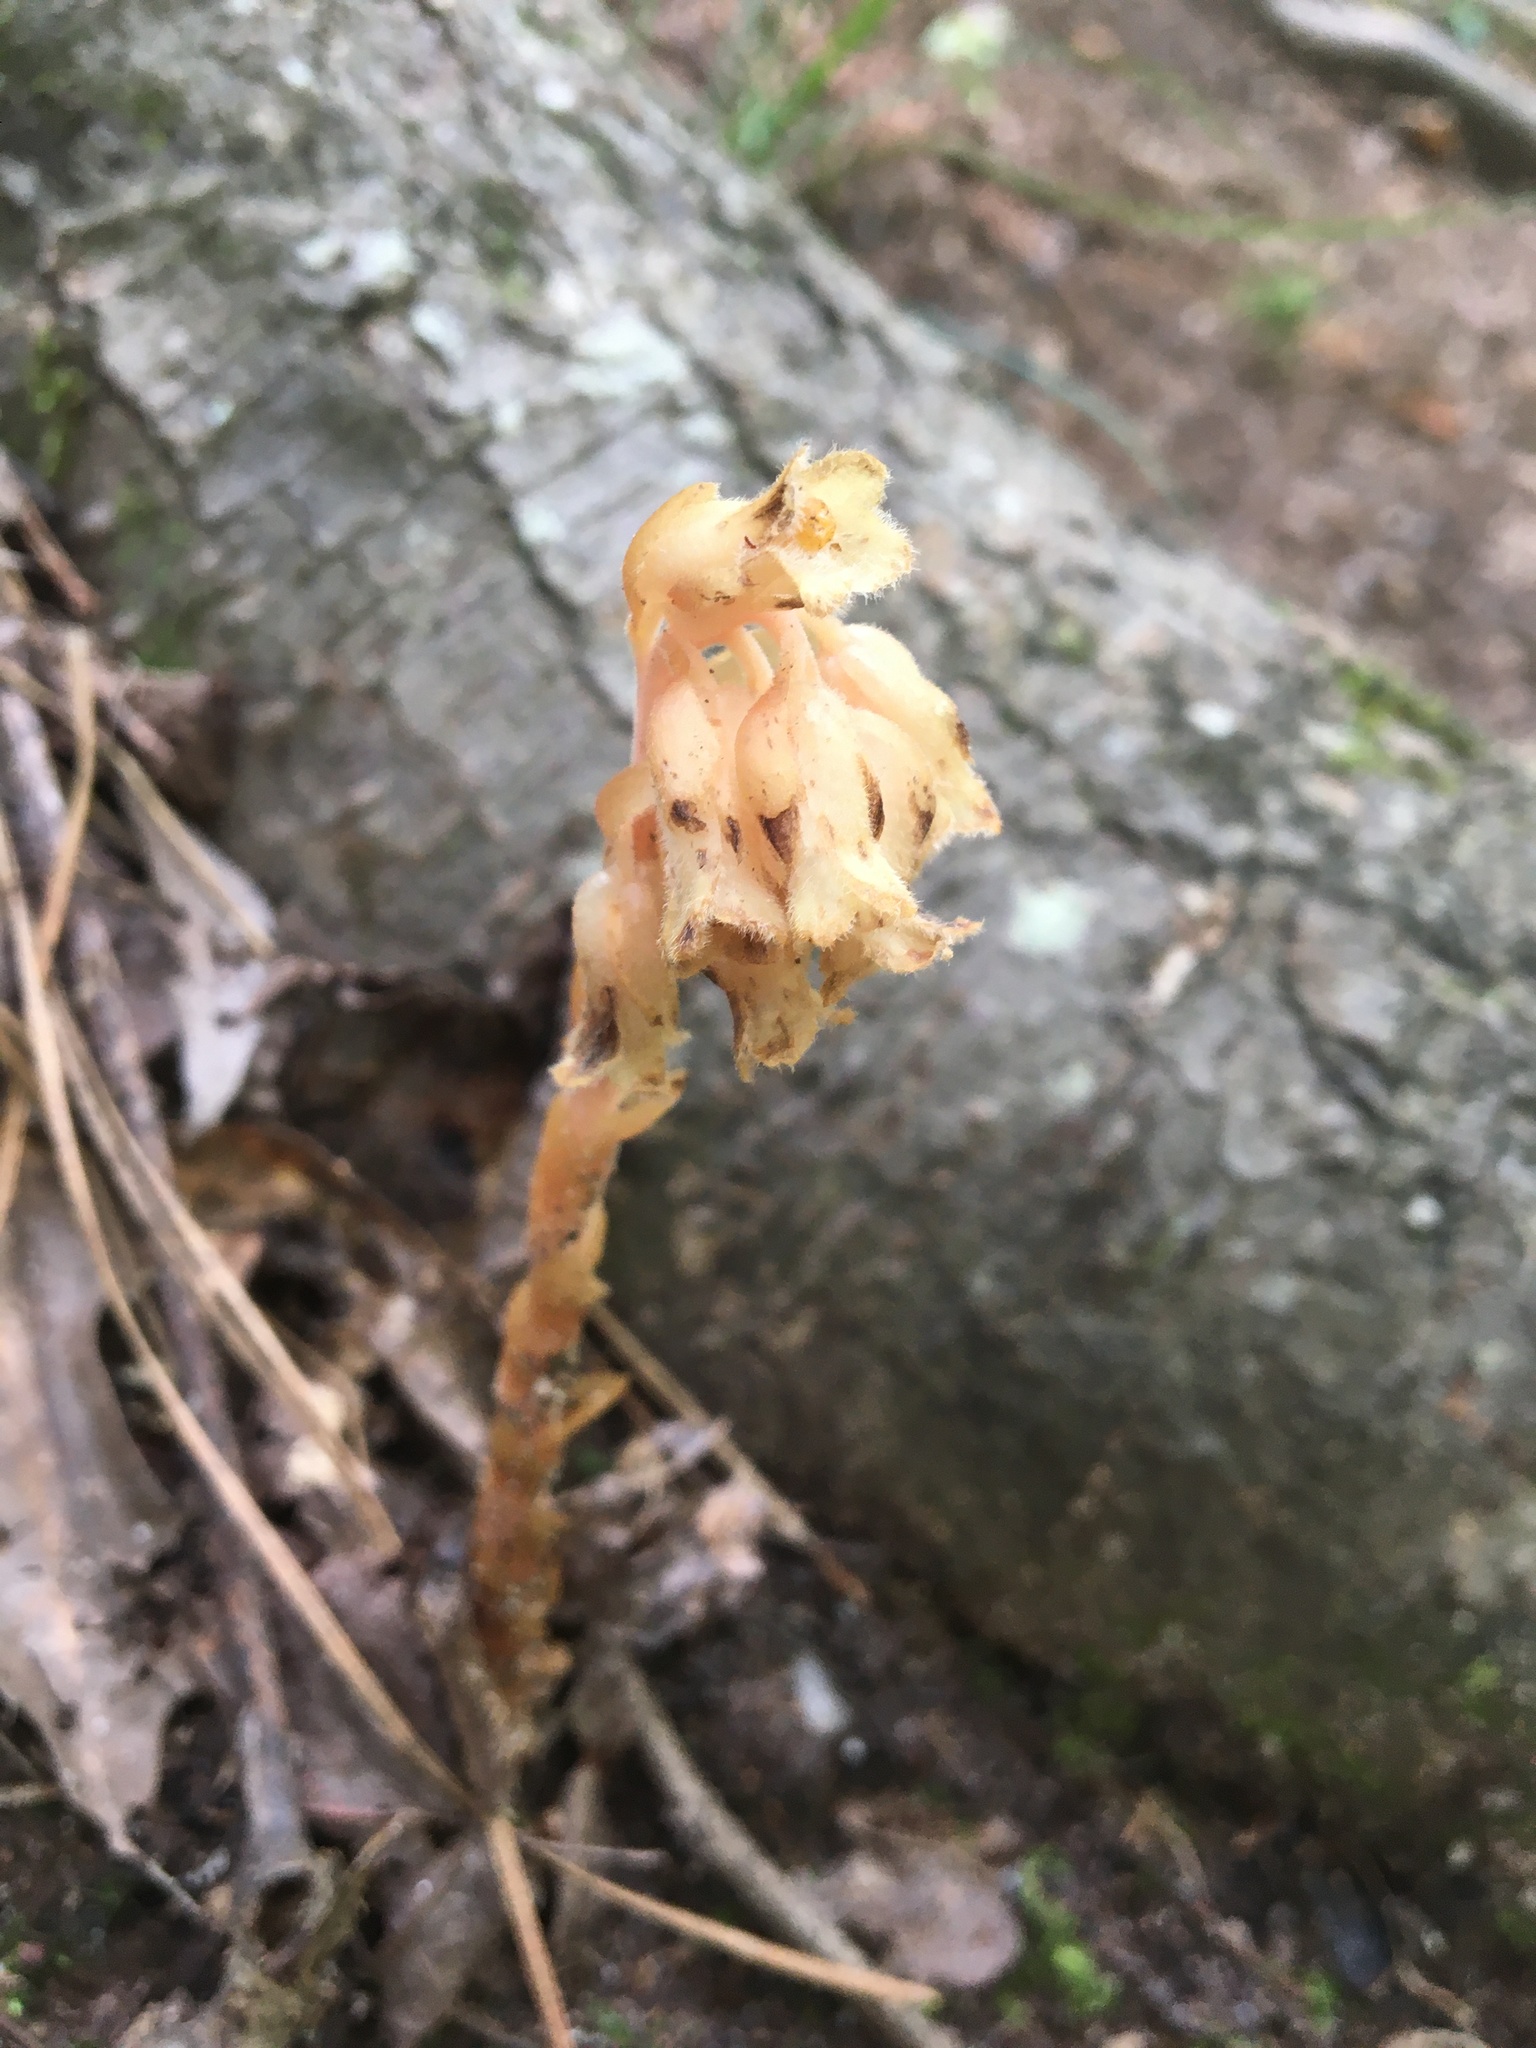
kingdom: Plantae
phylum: Tracheophyta
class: Magnoliopsida
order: Ericales
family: Ericaceae
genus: Hypopitys
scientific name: Hypopitys monotropa
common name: Yellow bird's-nest
